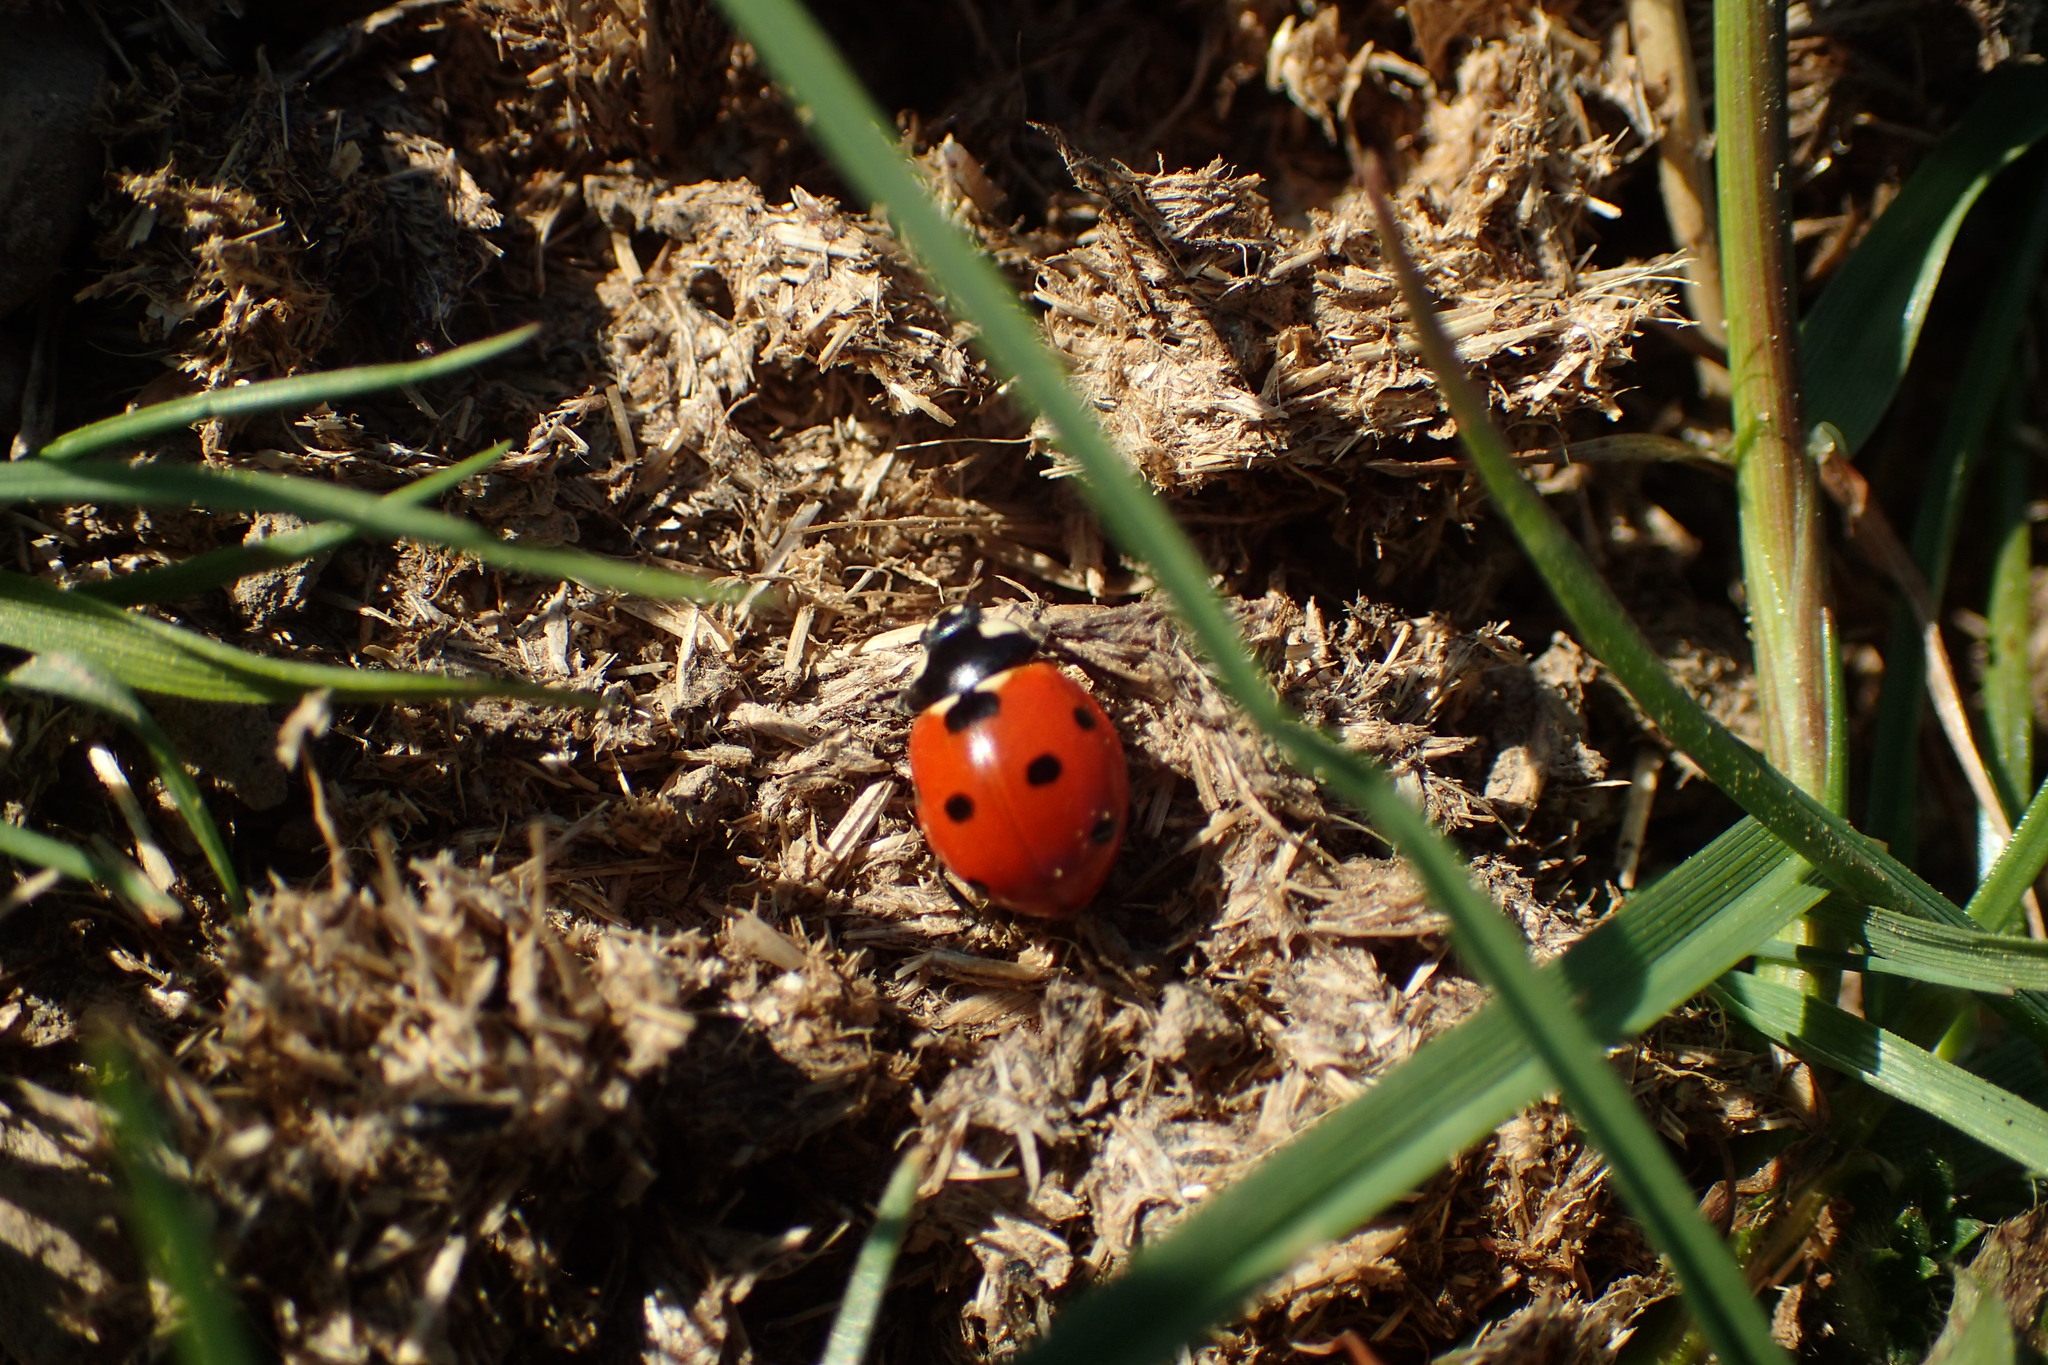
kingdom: Animalia
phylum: Arthropoda
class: Insecta
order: Coleoptera
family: Coccinellidae
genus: Coccinella
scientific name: Coccinella septempunctata
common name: Sevenspotted lady beetle
